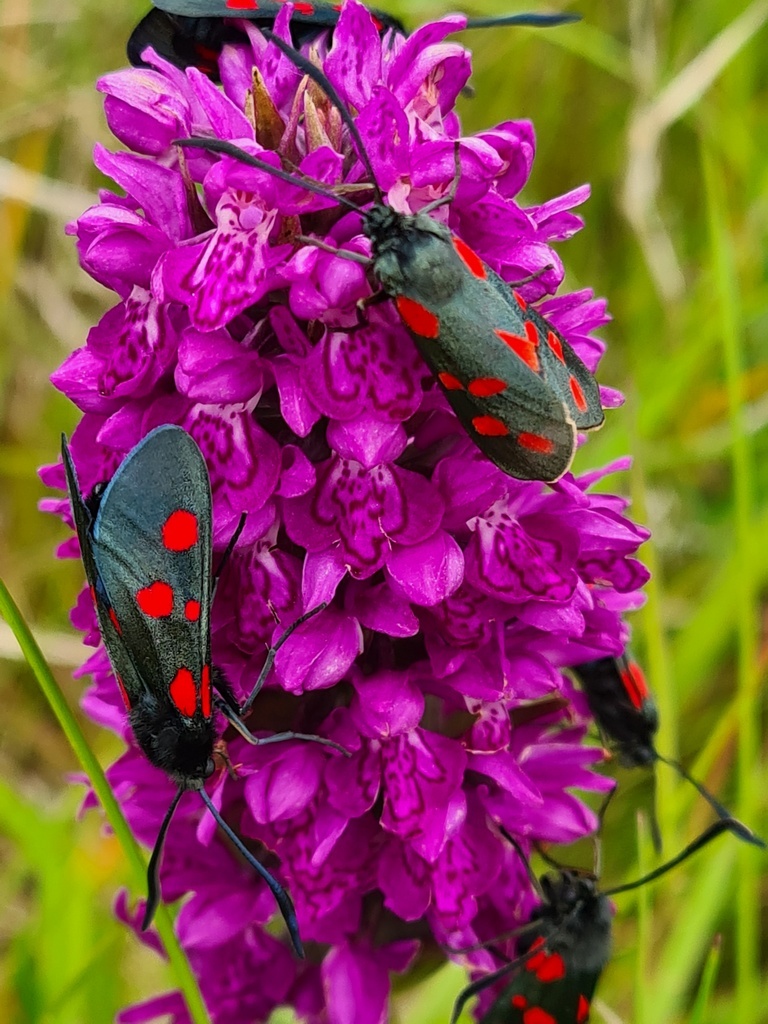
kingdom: Animalia
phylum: Arthropoda
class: Insecta
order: Lepidoptera
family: Zygaenidae
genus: Zygaena
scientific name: Zygaena lonicerae
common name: Narrow-bordered five-spot burnet
